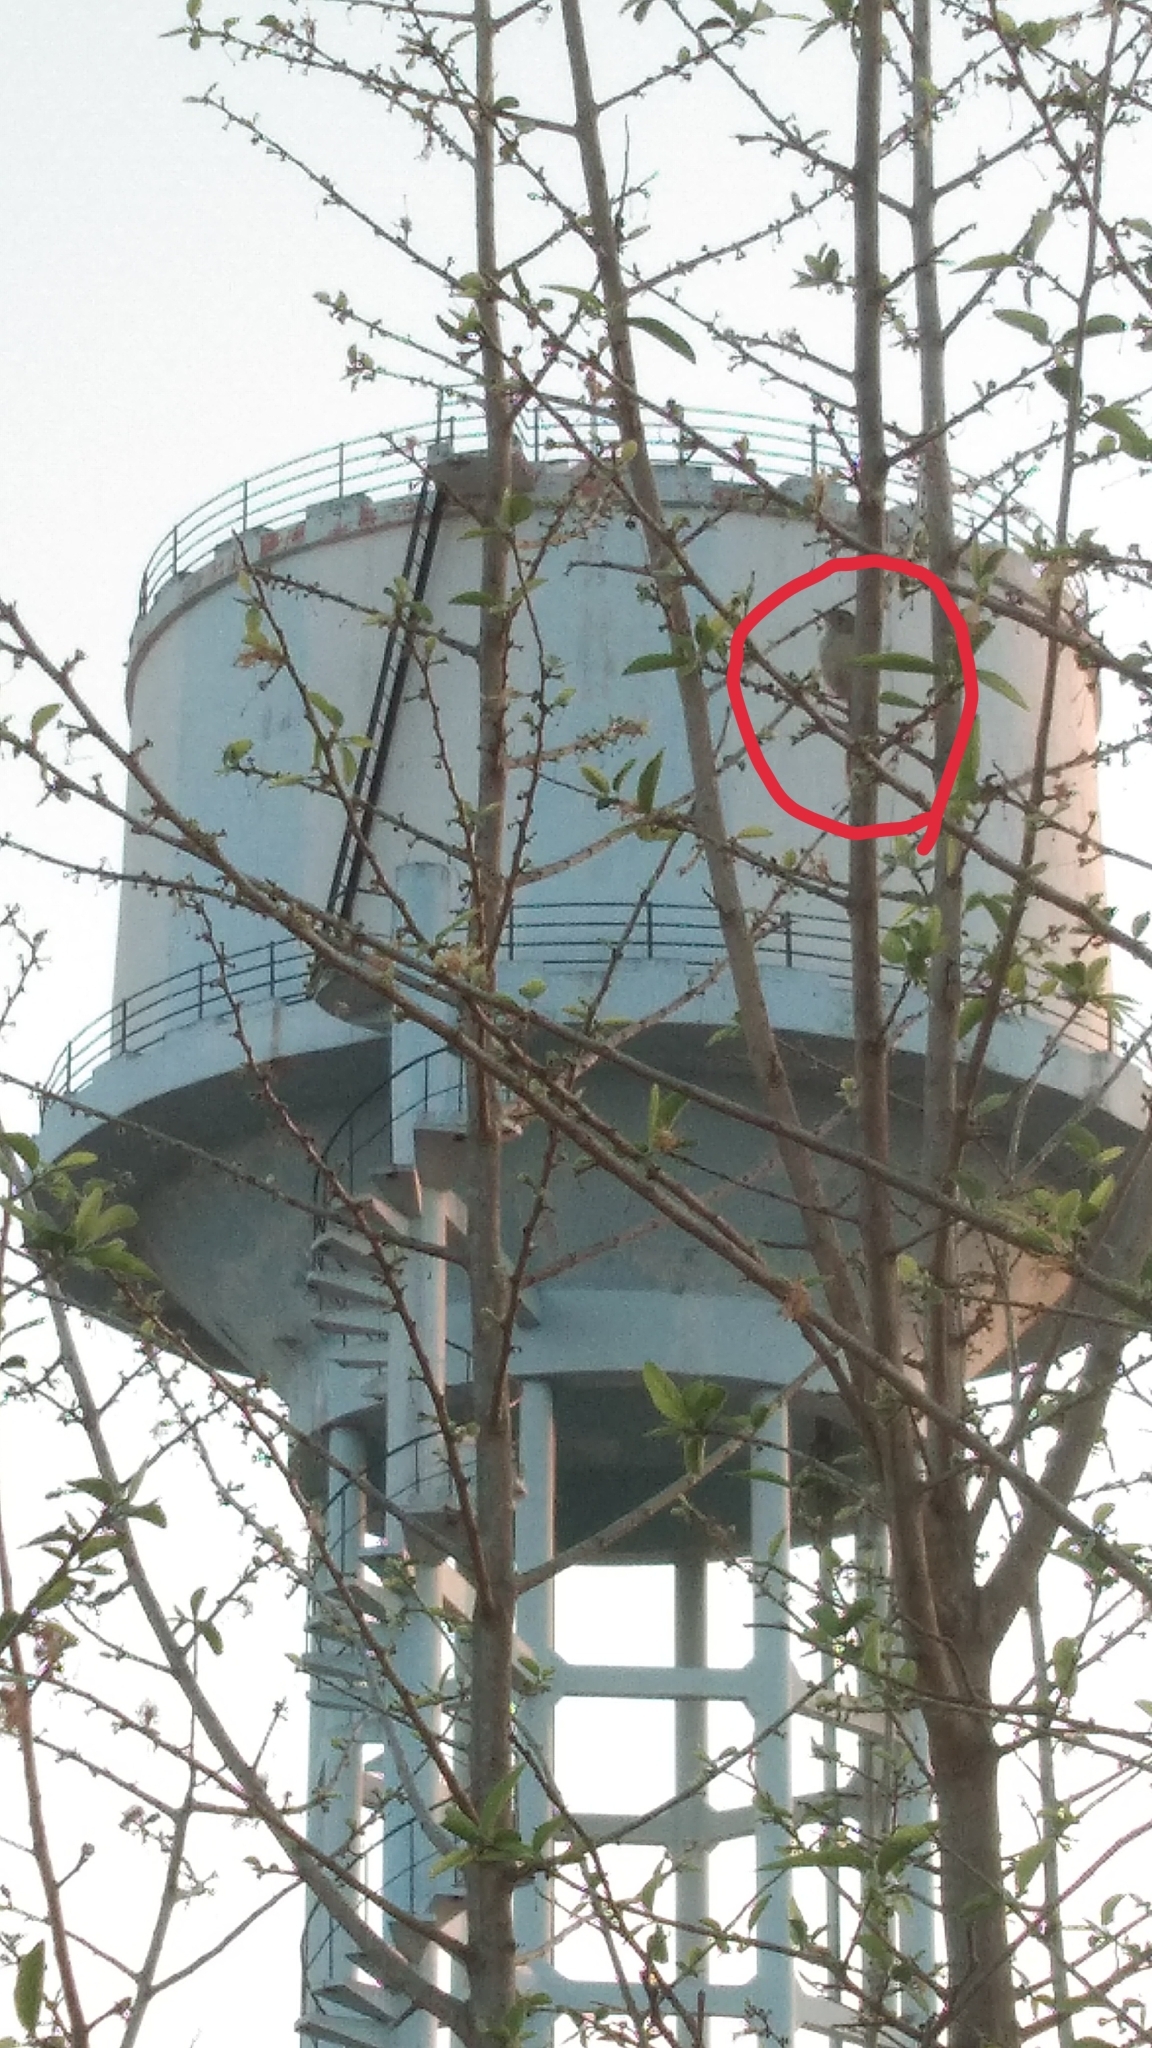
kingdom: Animalia
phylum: Chordata
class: Aves
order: Passeriformes
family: Cisticolidae
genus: Prinia
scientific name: Prinia inornata
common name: Plain prinia
